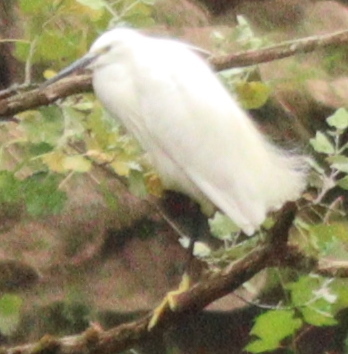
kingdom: Animalia
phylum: Chordata
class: Aves
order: Pelecaniformes
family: Ardeidae
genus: Egretta
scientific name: Egretta garzetta
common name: Little egret
